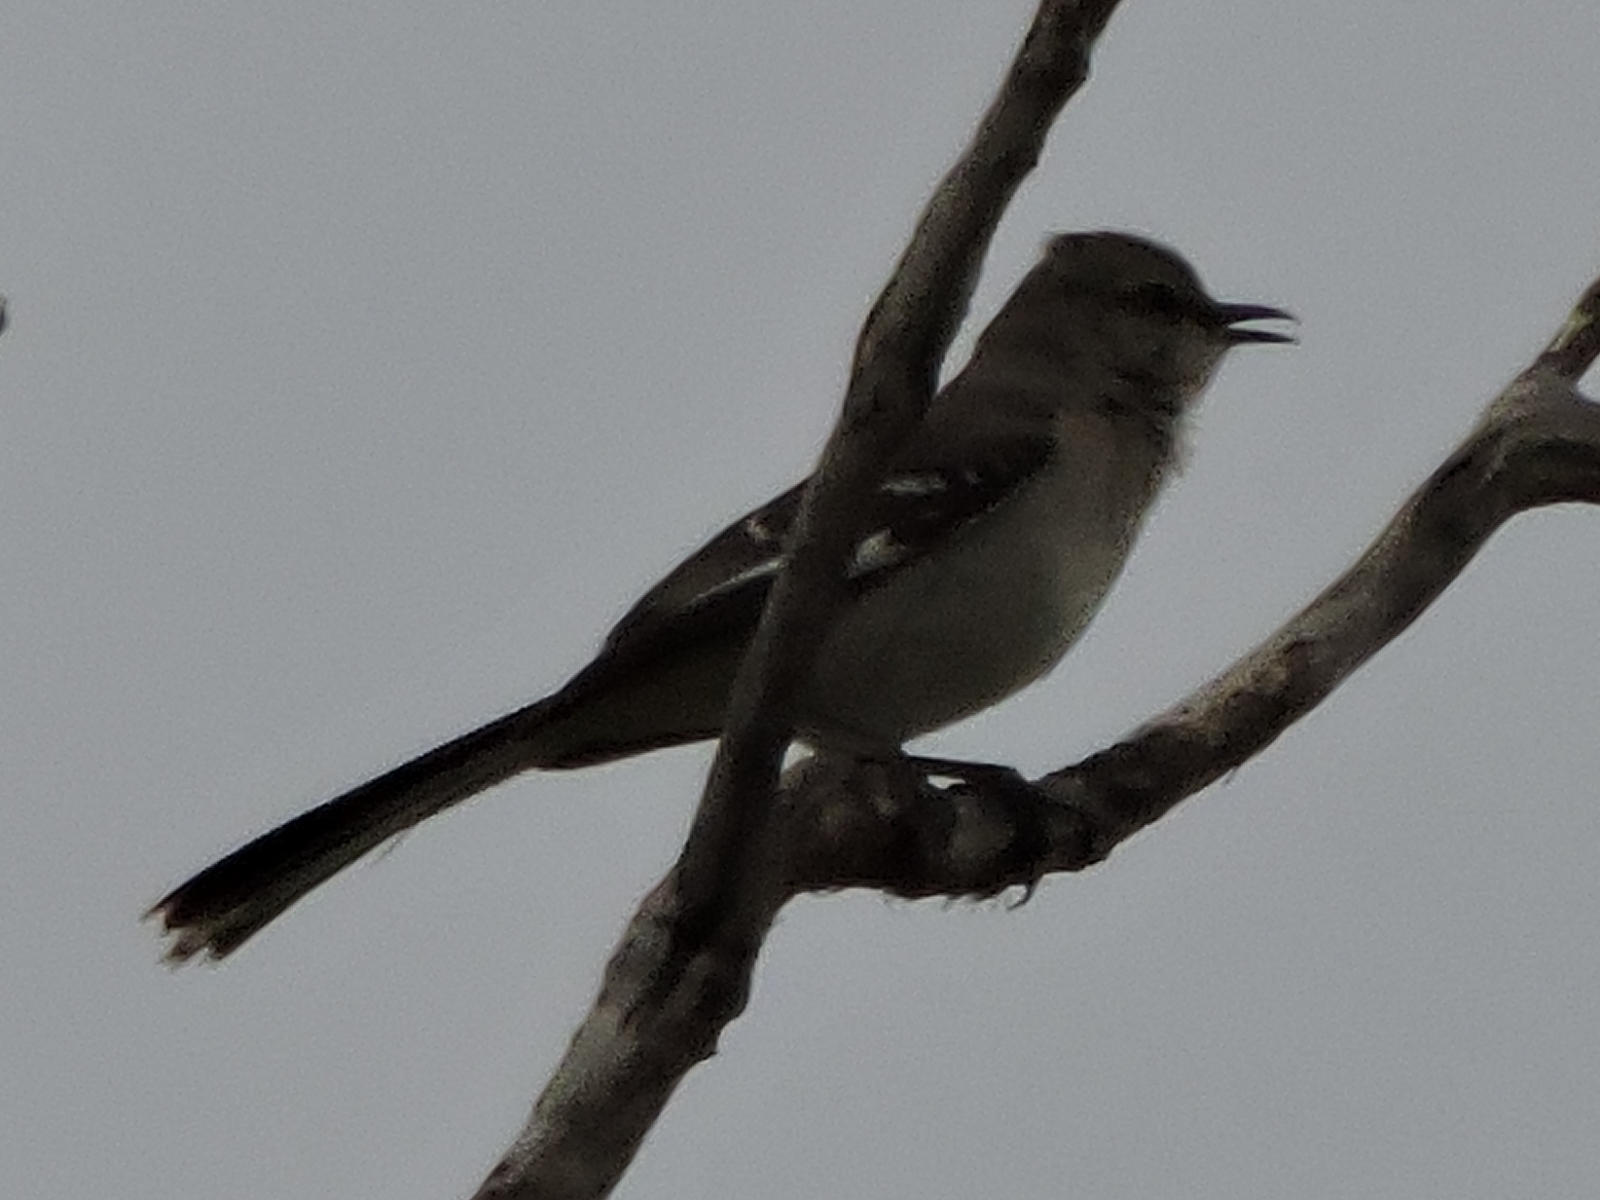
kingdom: Animalia
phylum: Chordata
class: Aves
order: Passeriformes
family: Mimidae
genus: Mimus
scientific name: Mimus polyglottos
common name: Northern mockingbird
